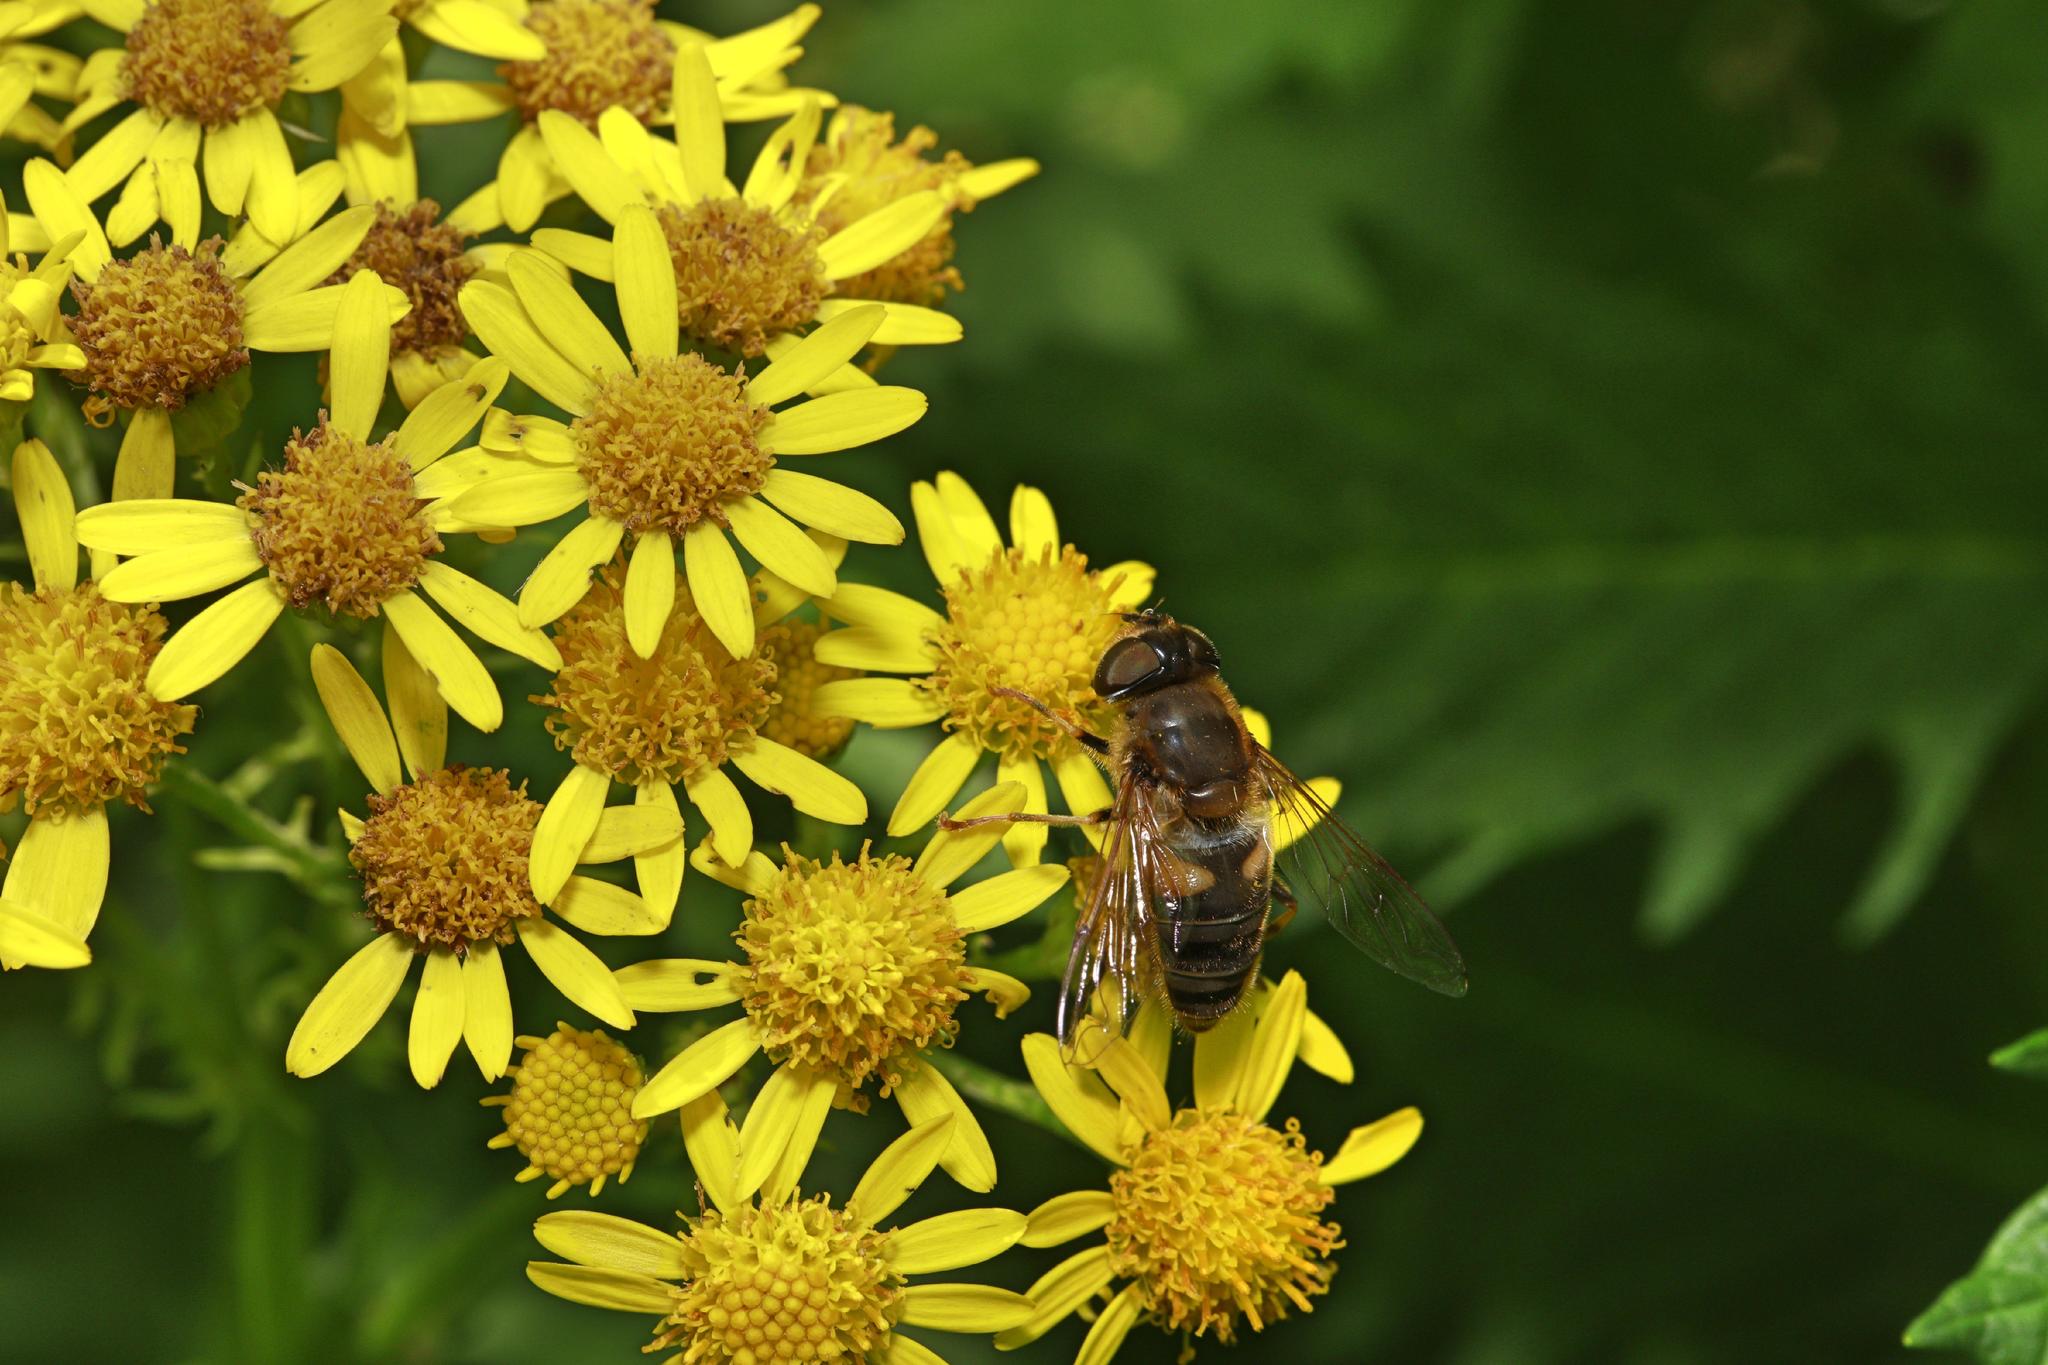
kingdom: Plantae
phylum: Tracheophyta
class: Magnoliopsida
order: Asterales
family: Asteraceae
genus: Jacobaea
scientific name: Jacobaea vulgaris
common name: Stinking willie
